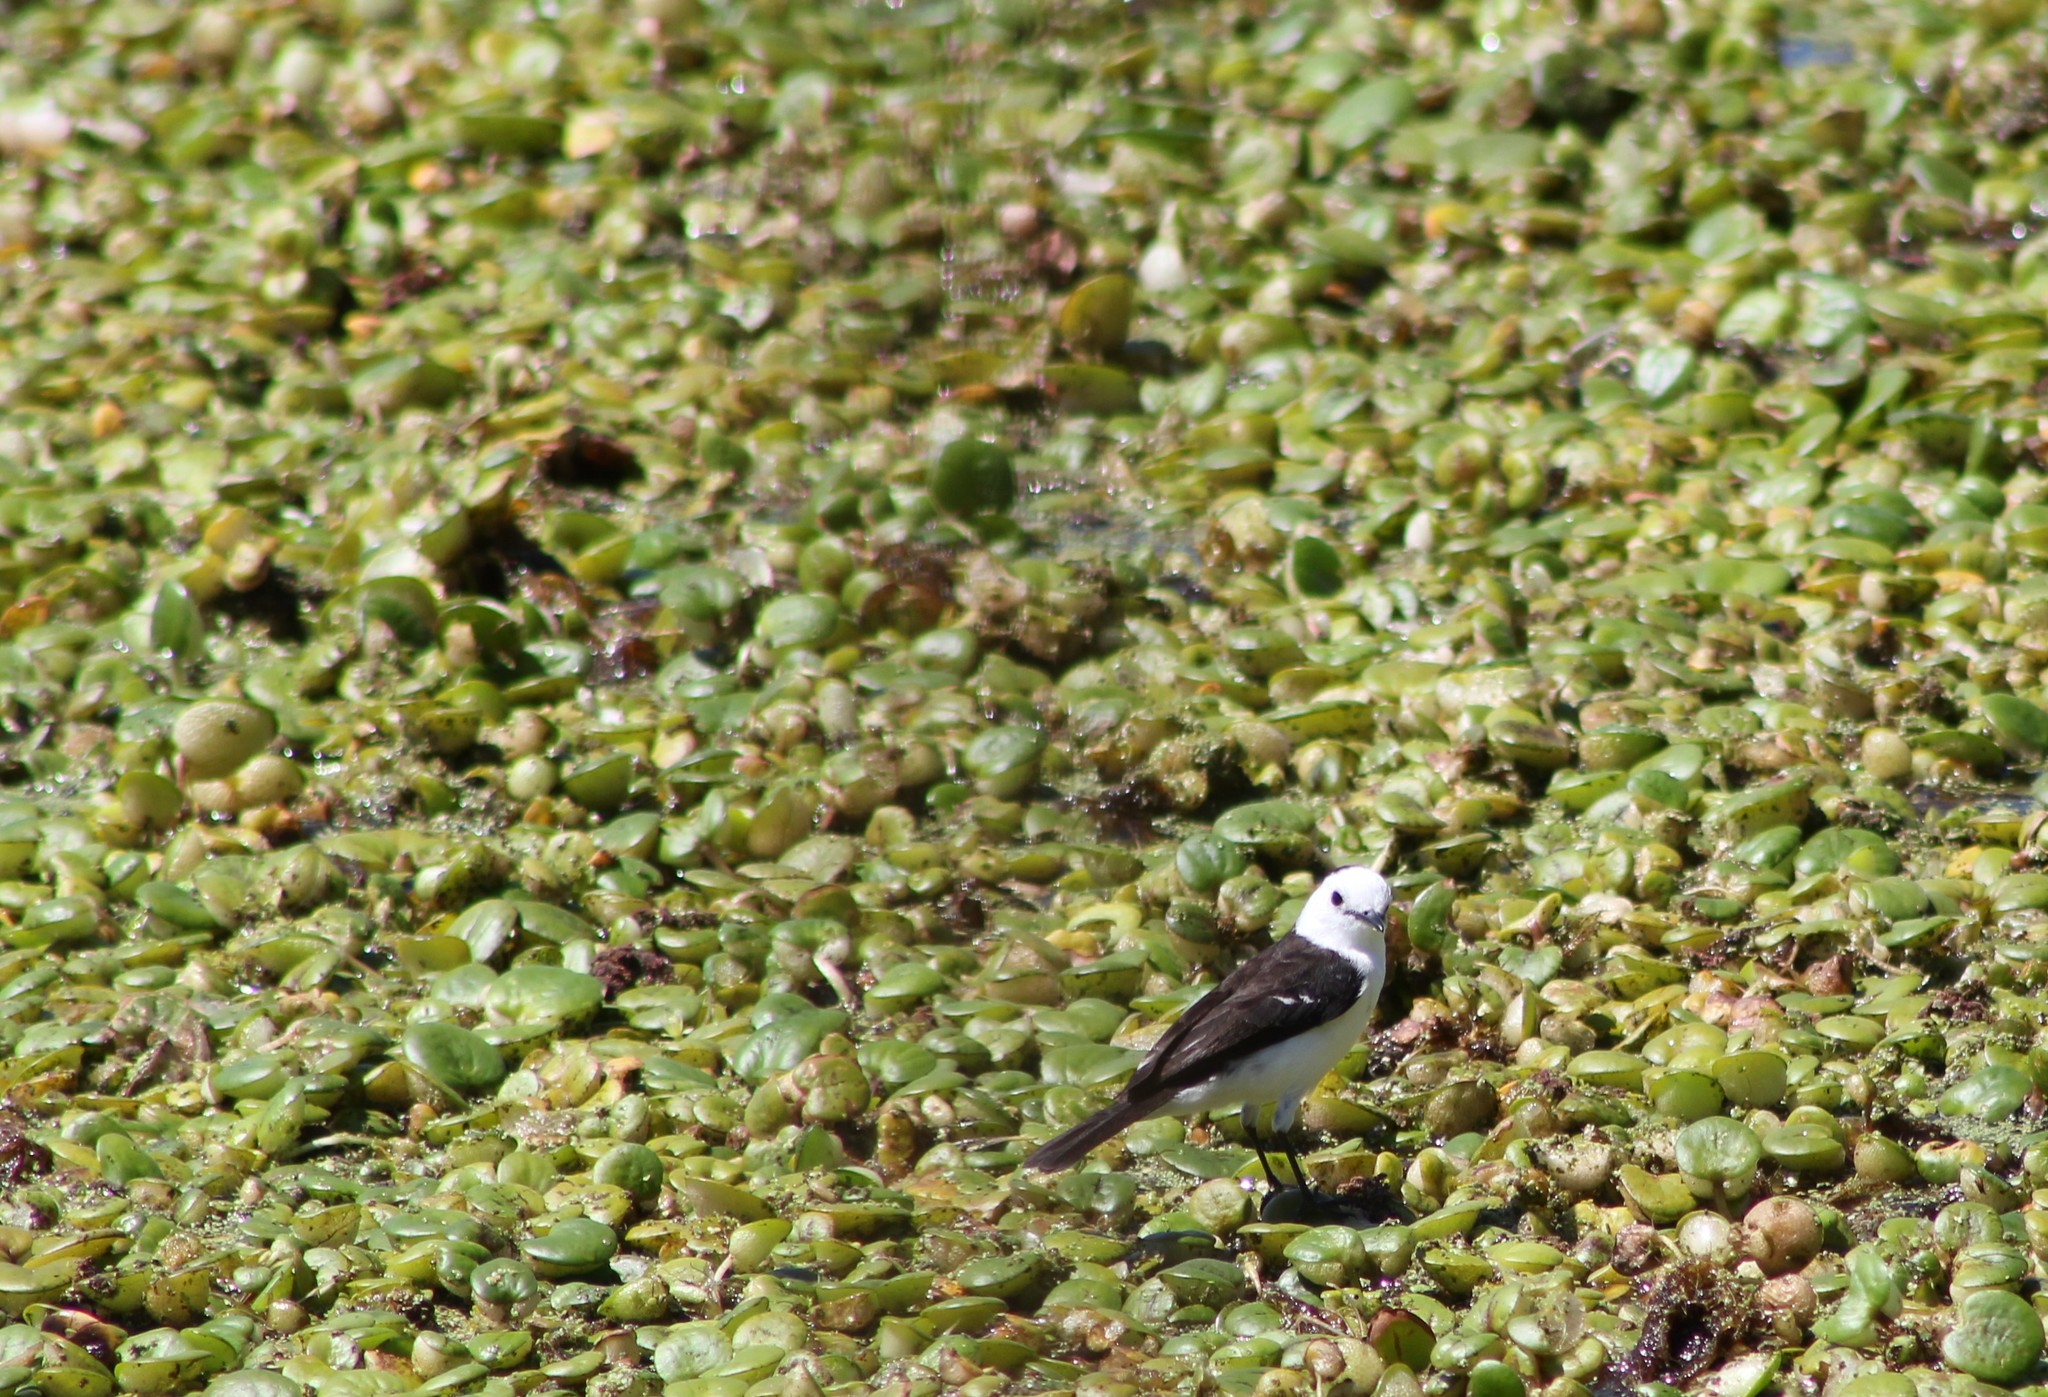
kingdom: Animalia
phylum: Chordata
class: Aves
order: Passeriformes
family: Tyrannidae
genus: Fluvicola
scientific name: Fluvicola pica
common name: Pied water-tyrant
